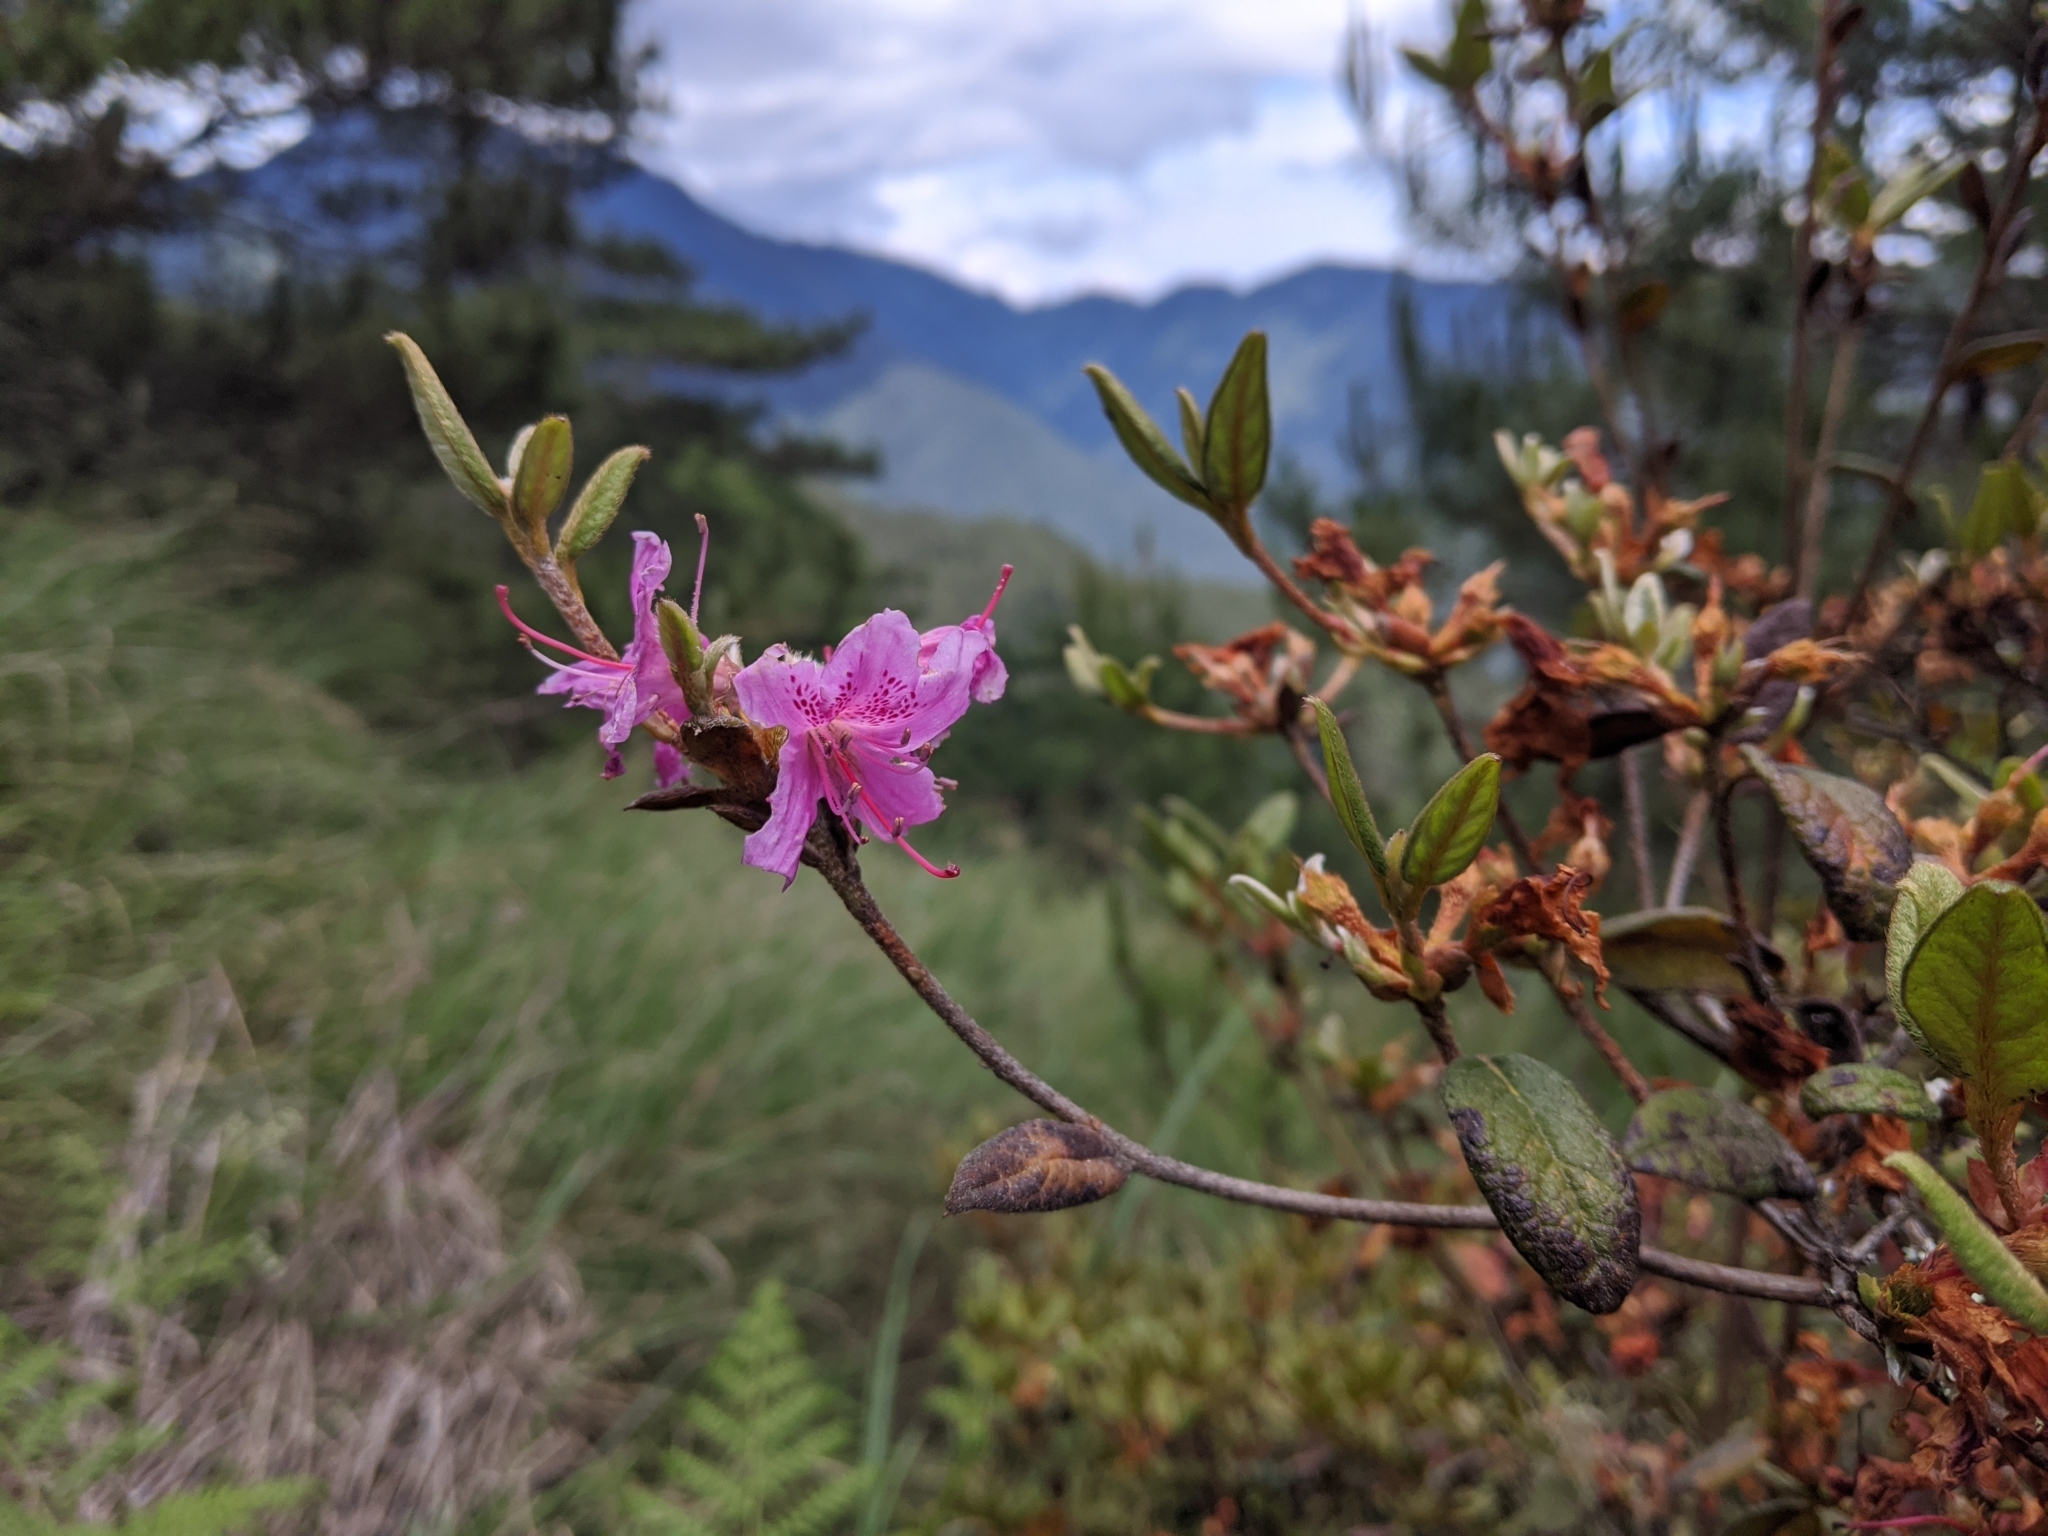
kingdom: Plantae
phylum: Tracheophyta
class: Magnoliopsida
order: Ericales
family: Ericaceae
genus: Rhododendron
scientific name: Rhododendron taiwanalpinum
